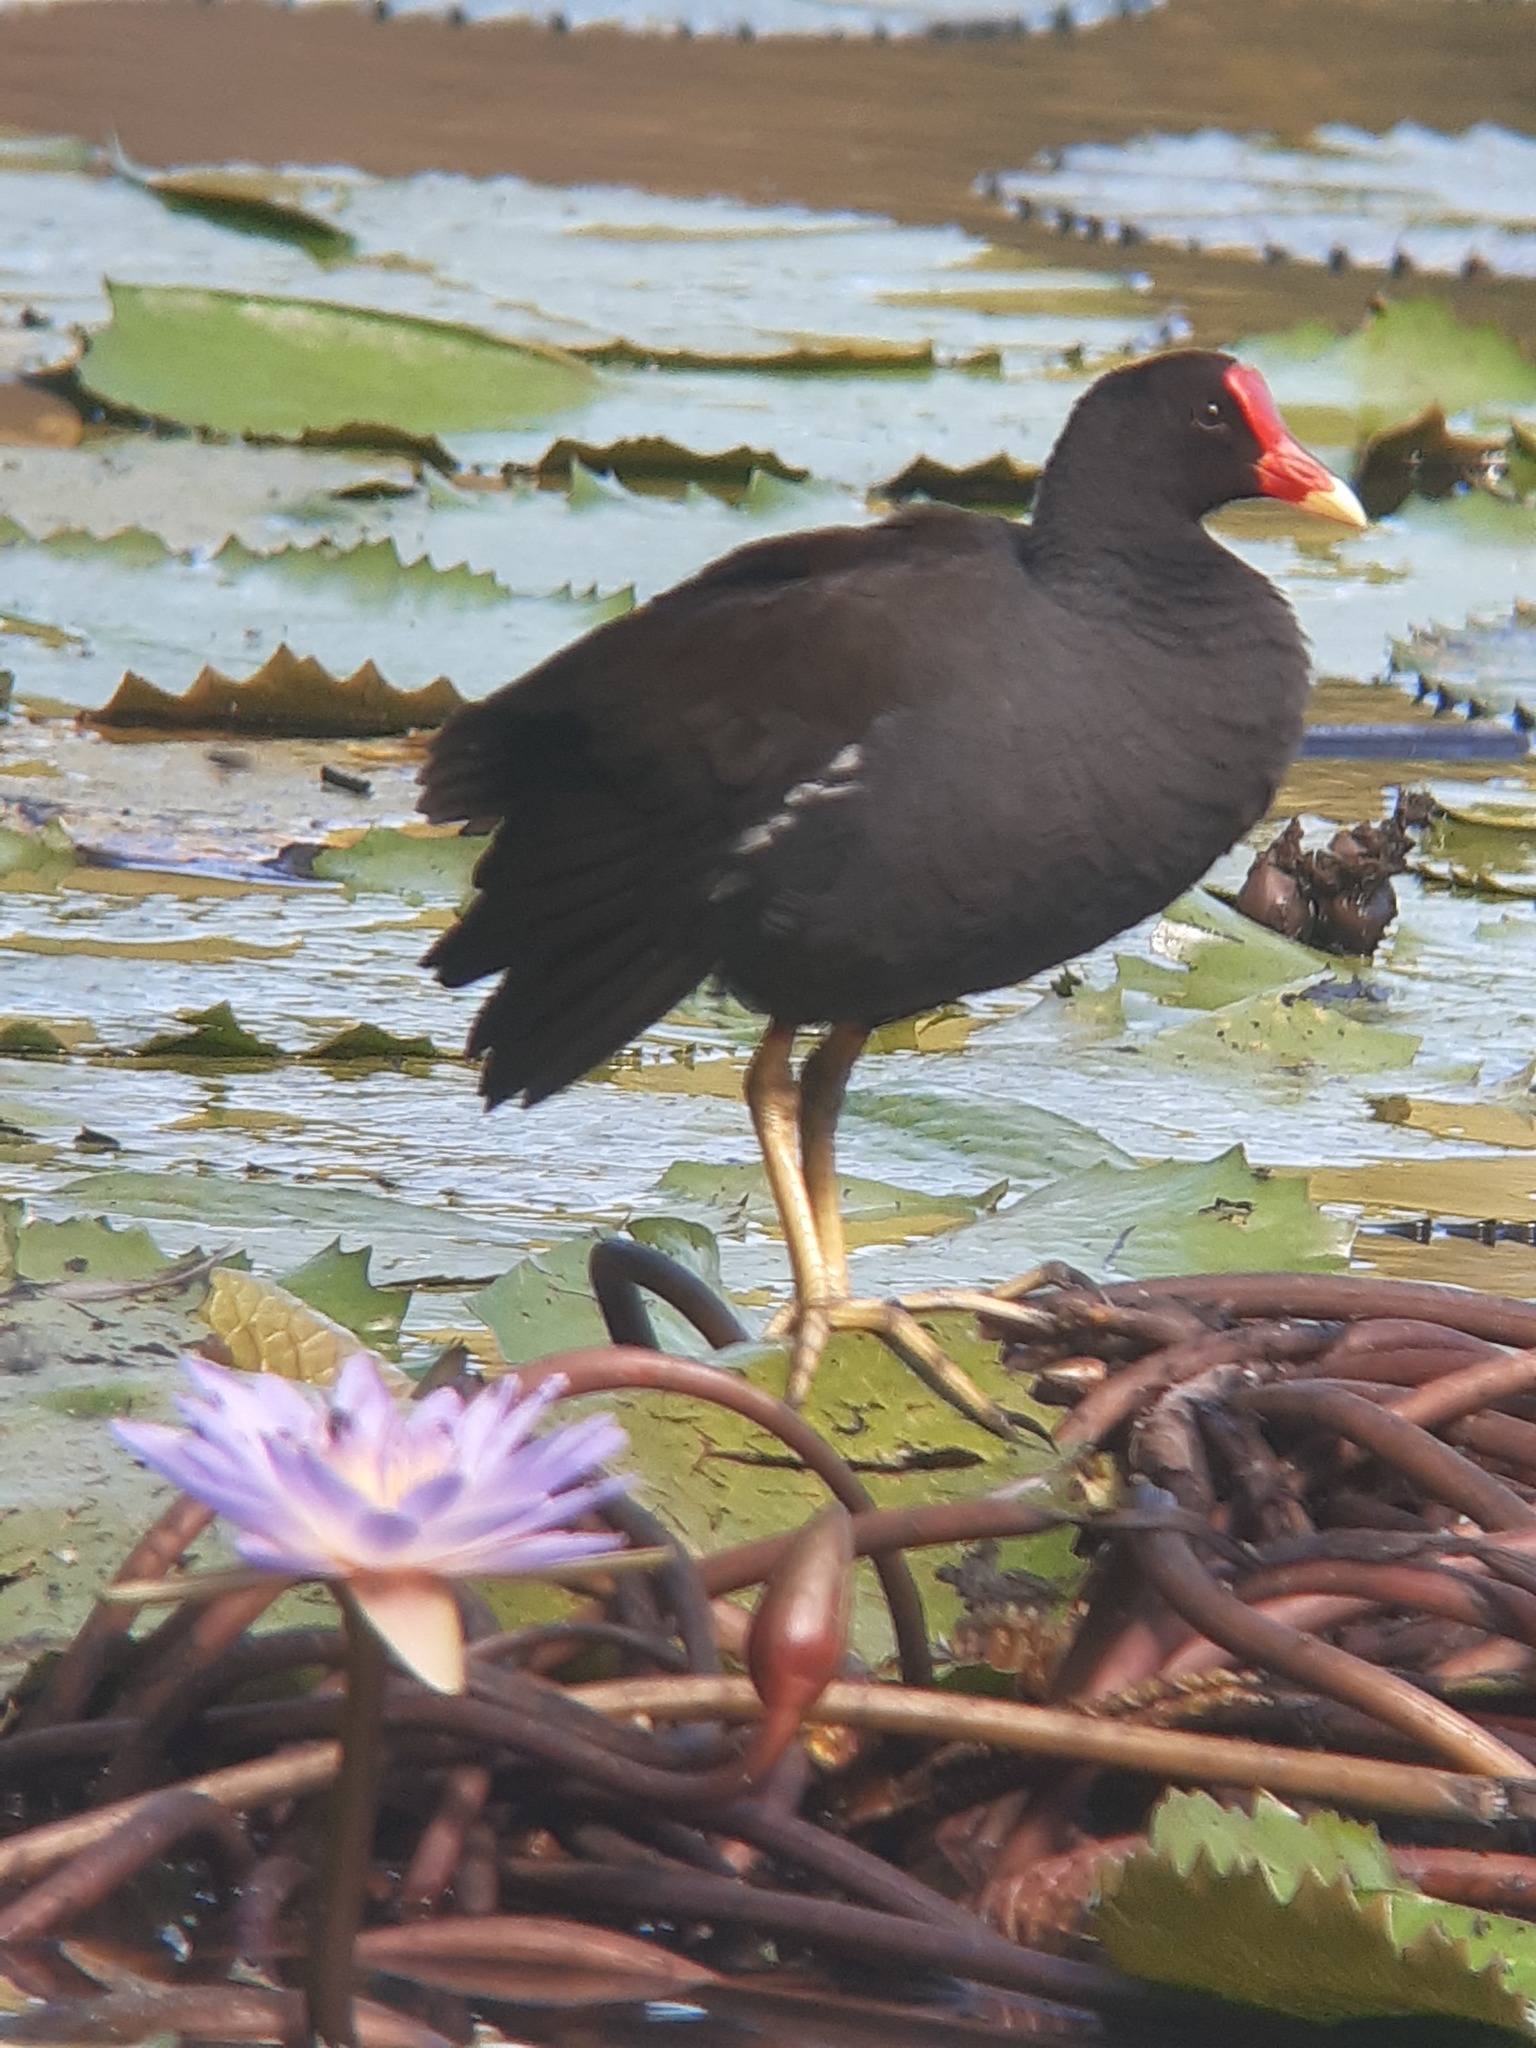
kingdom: Animalia
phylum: Chordata
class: Aves
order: Gruiformes
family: Rallidae
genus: Gallinula
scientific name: Gallinula chloropus
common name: Common moorhen
